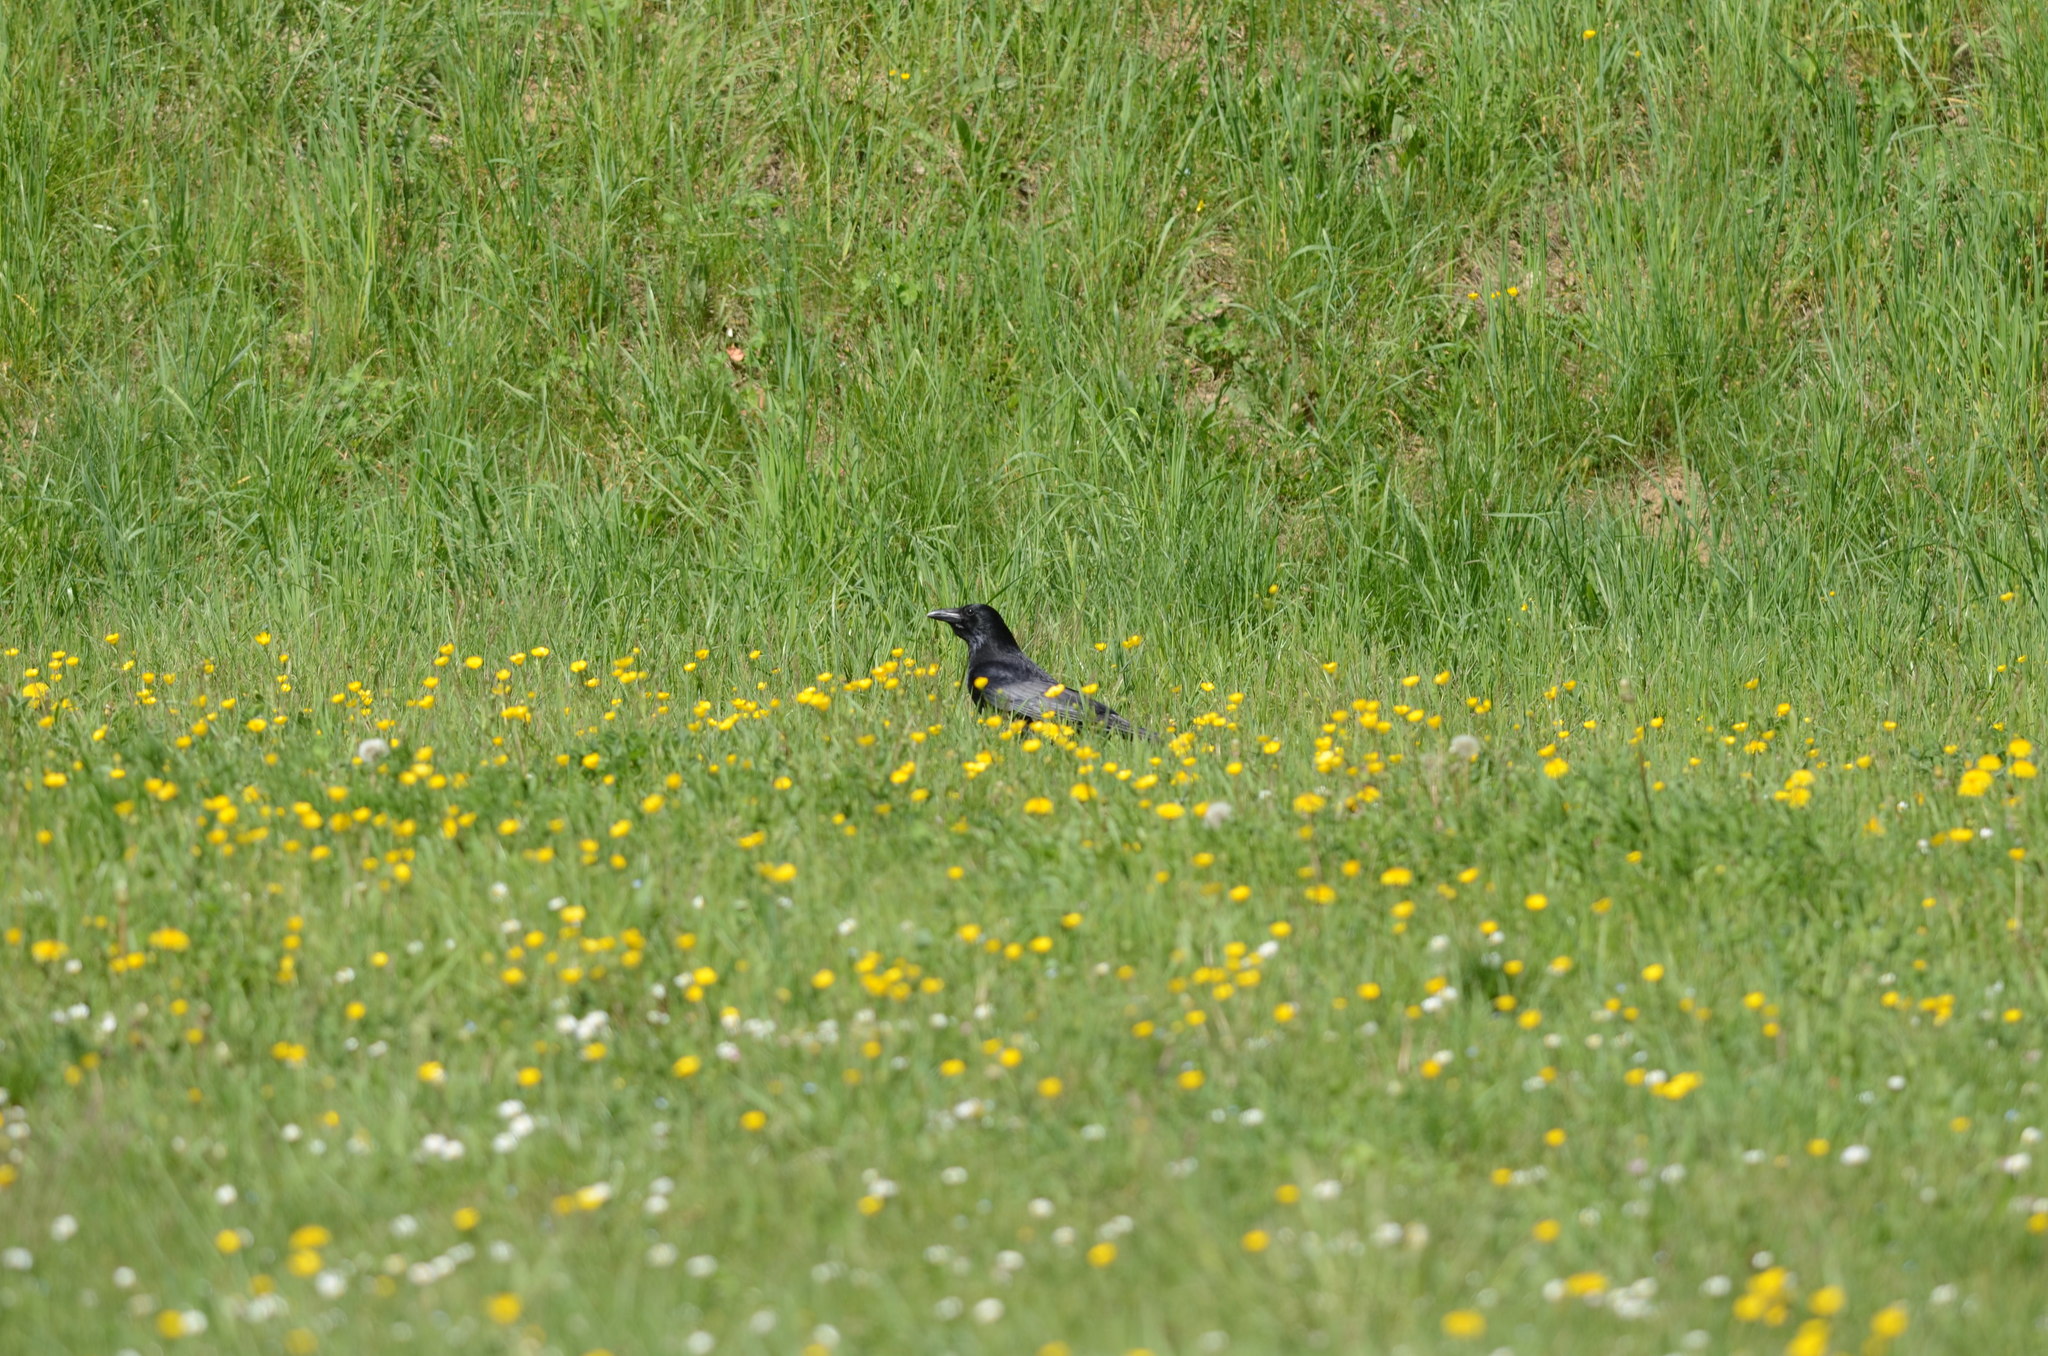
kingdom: Animalia
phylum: Chordata
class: Aves
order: Passeriformes
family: Corvidae
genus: Corvus
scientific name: Corvus corone
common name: Carrion crow
